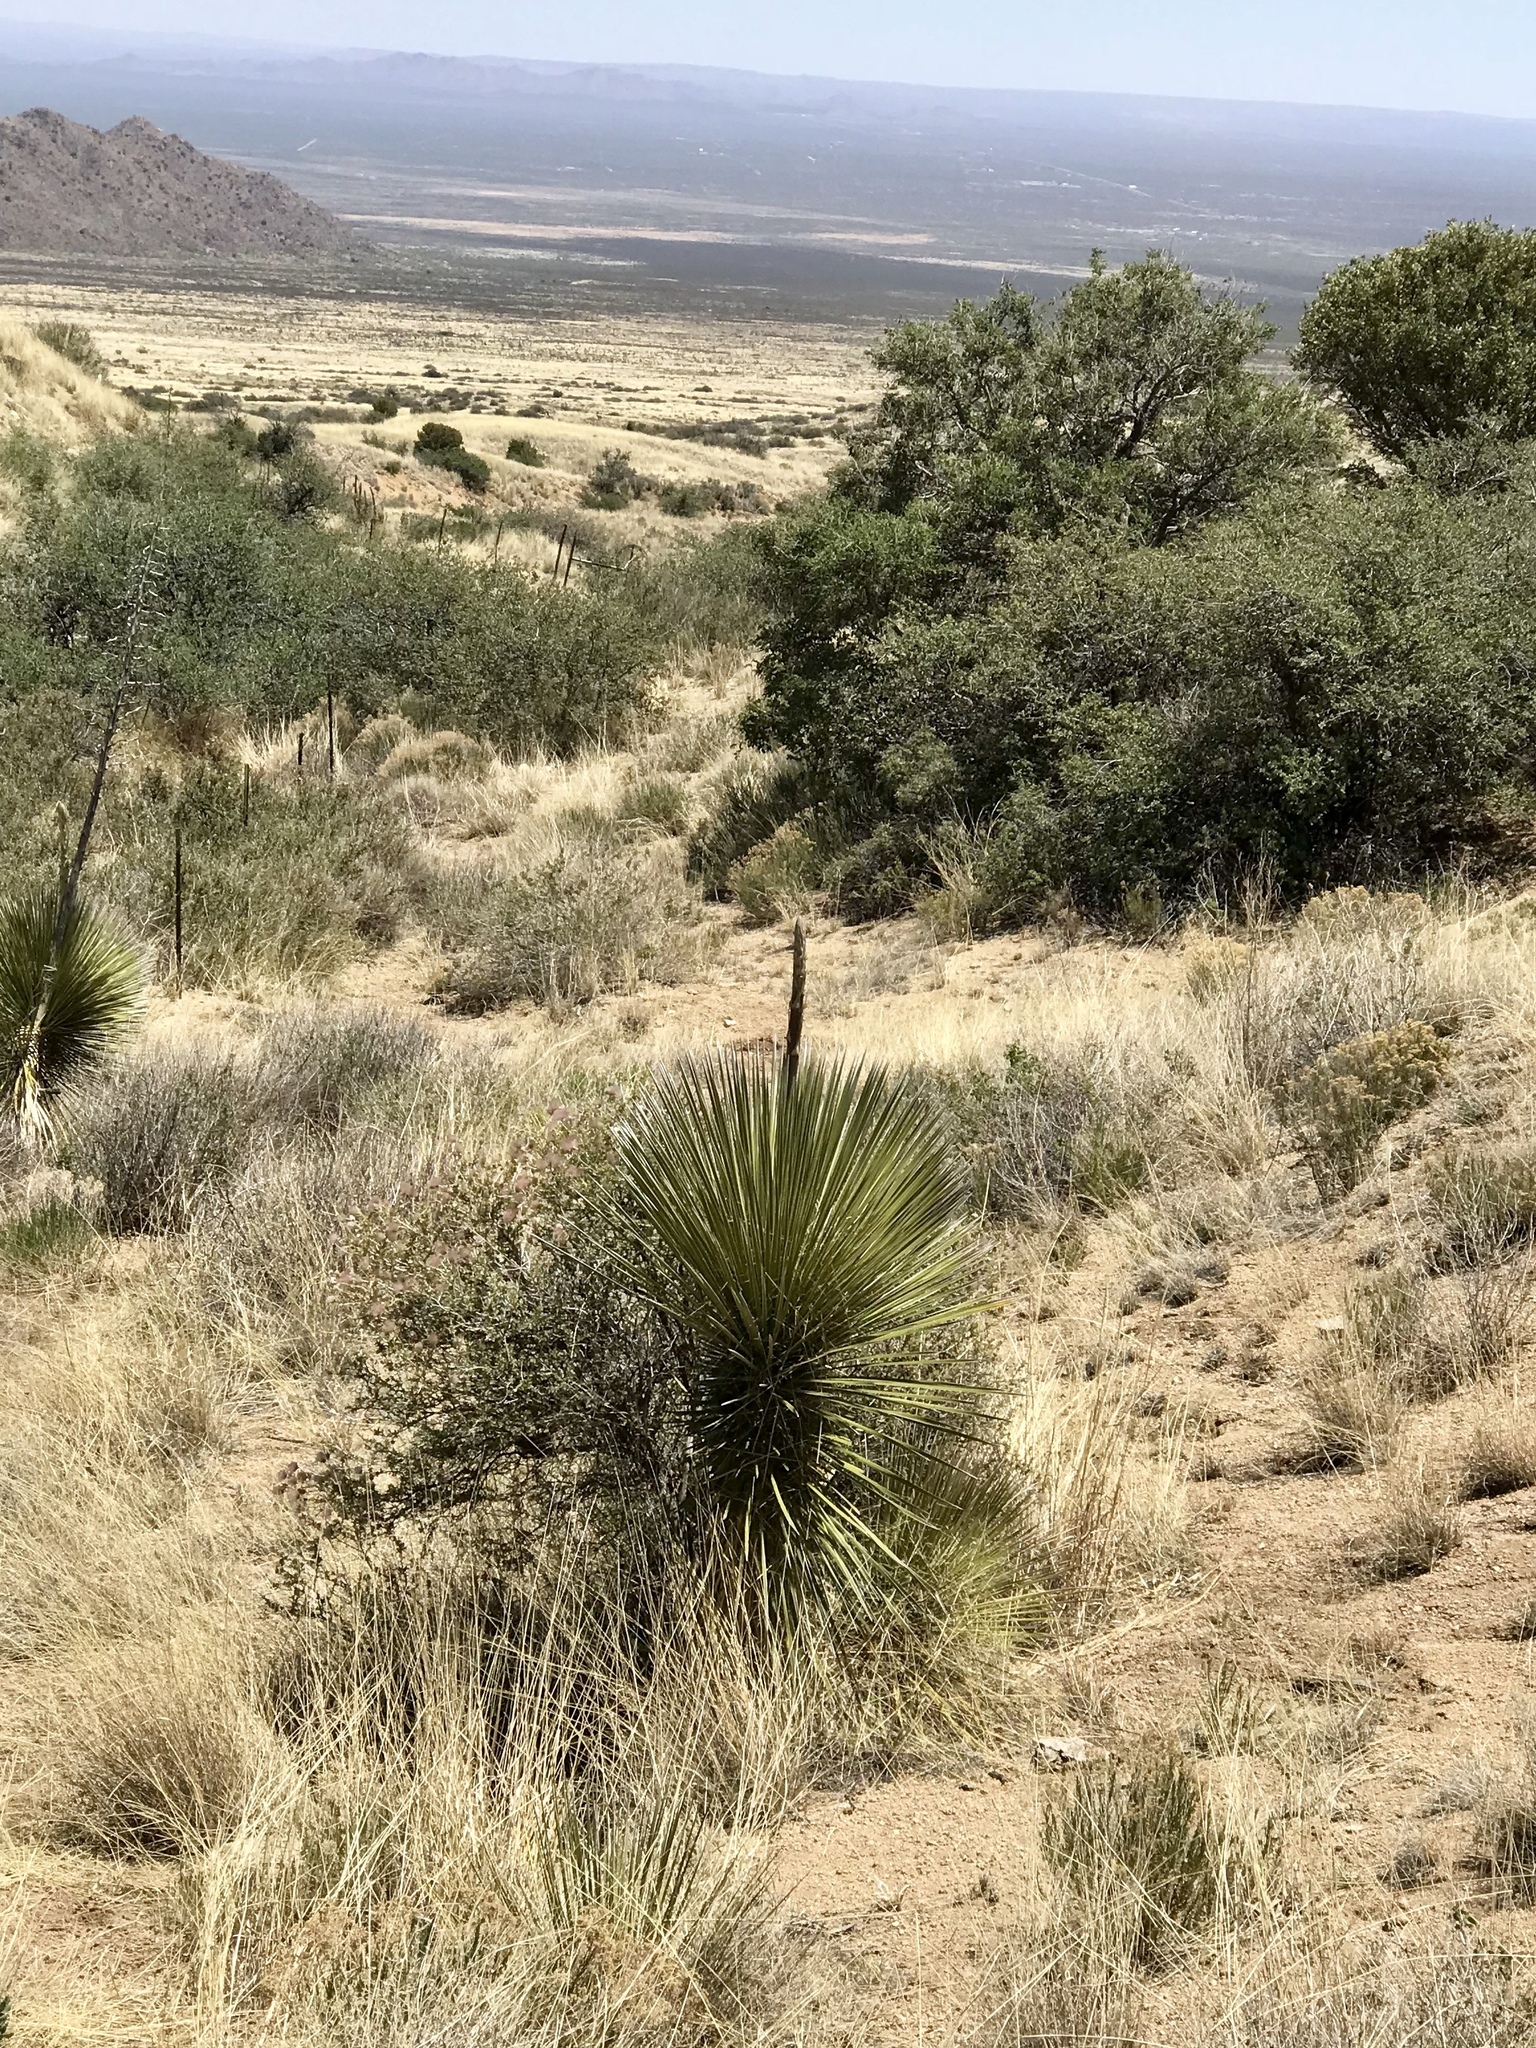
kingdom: Plantae
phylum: Tracheophyta
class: Liliopsida
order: Asparagales
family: Asparagaceae
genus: Yucca
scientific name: Yucca elata
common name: Palmella
